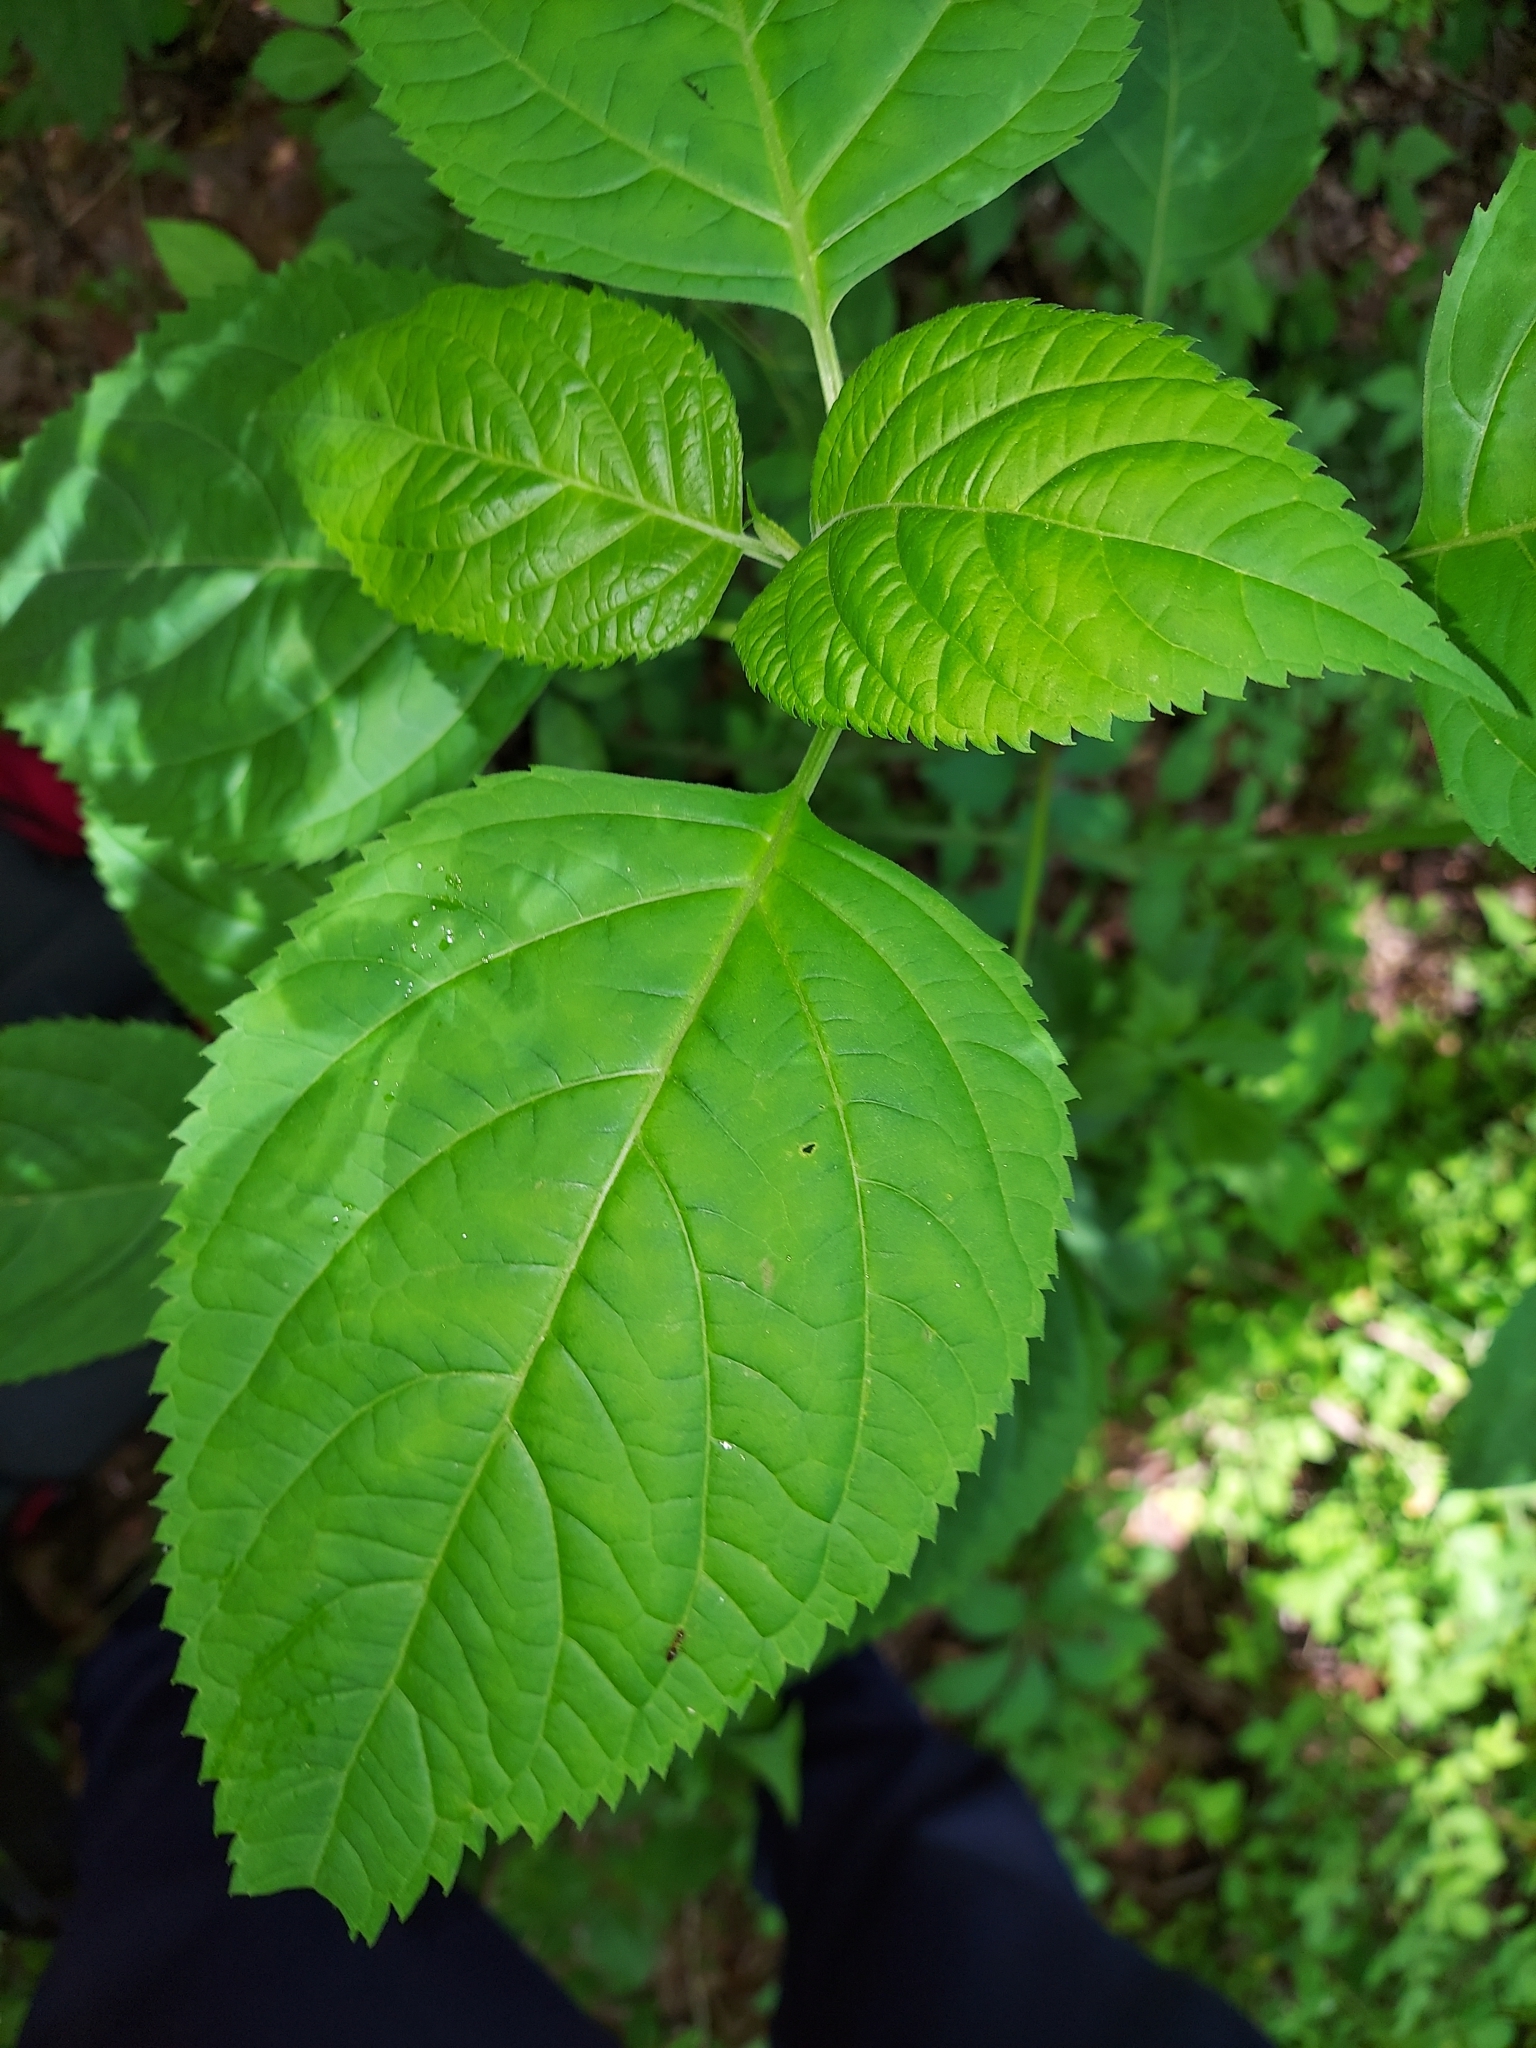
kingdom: Plantae
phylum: Tracheophyta
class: Magnoliopsida
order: Lamiales
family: Lamiaceae
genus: Collinsonia
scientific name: Collinsonia canadensis
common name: Northern horsebalm
